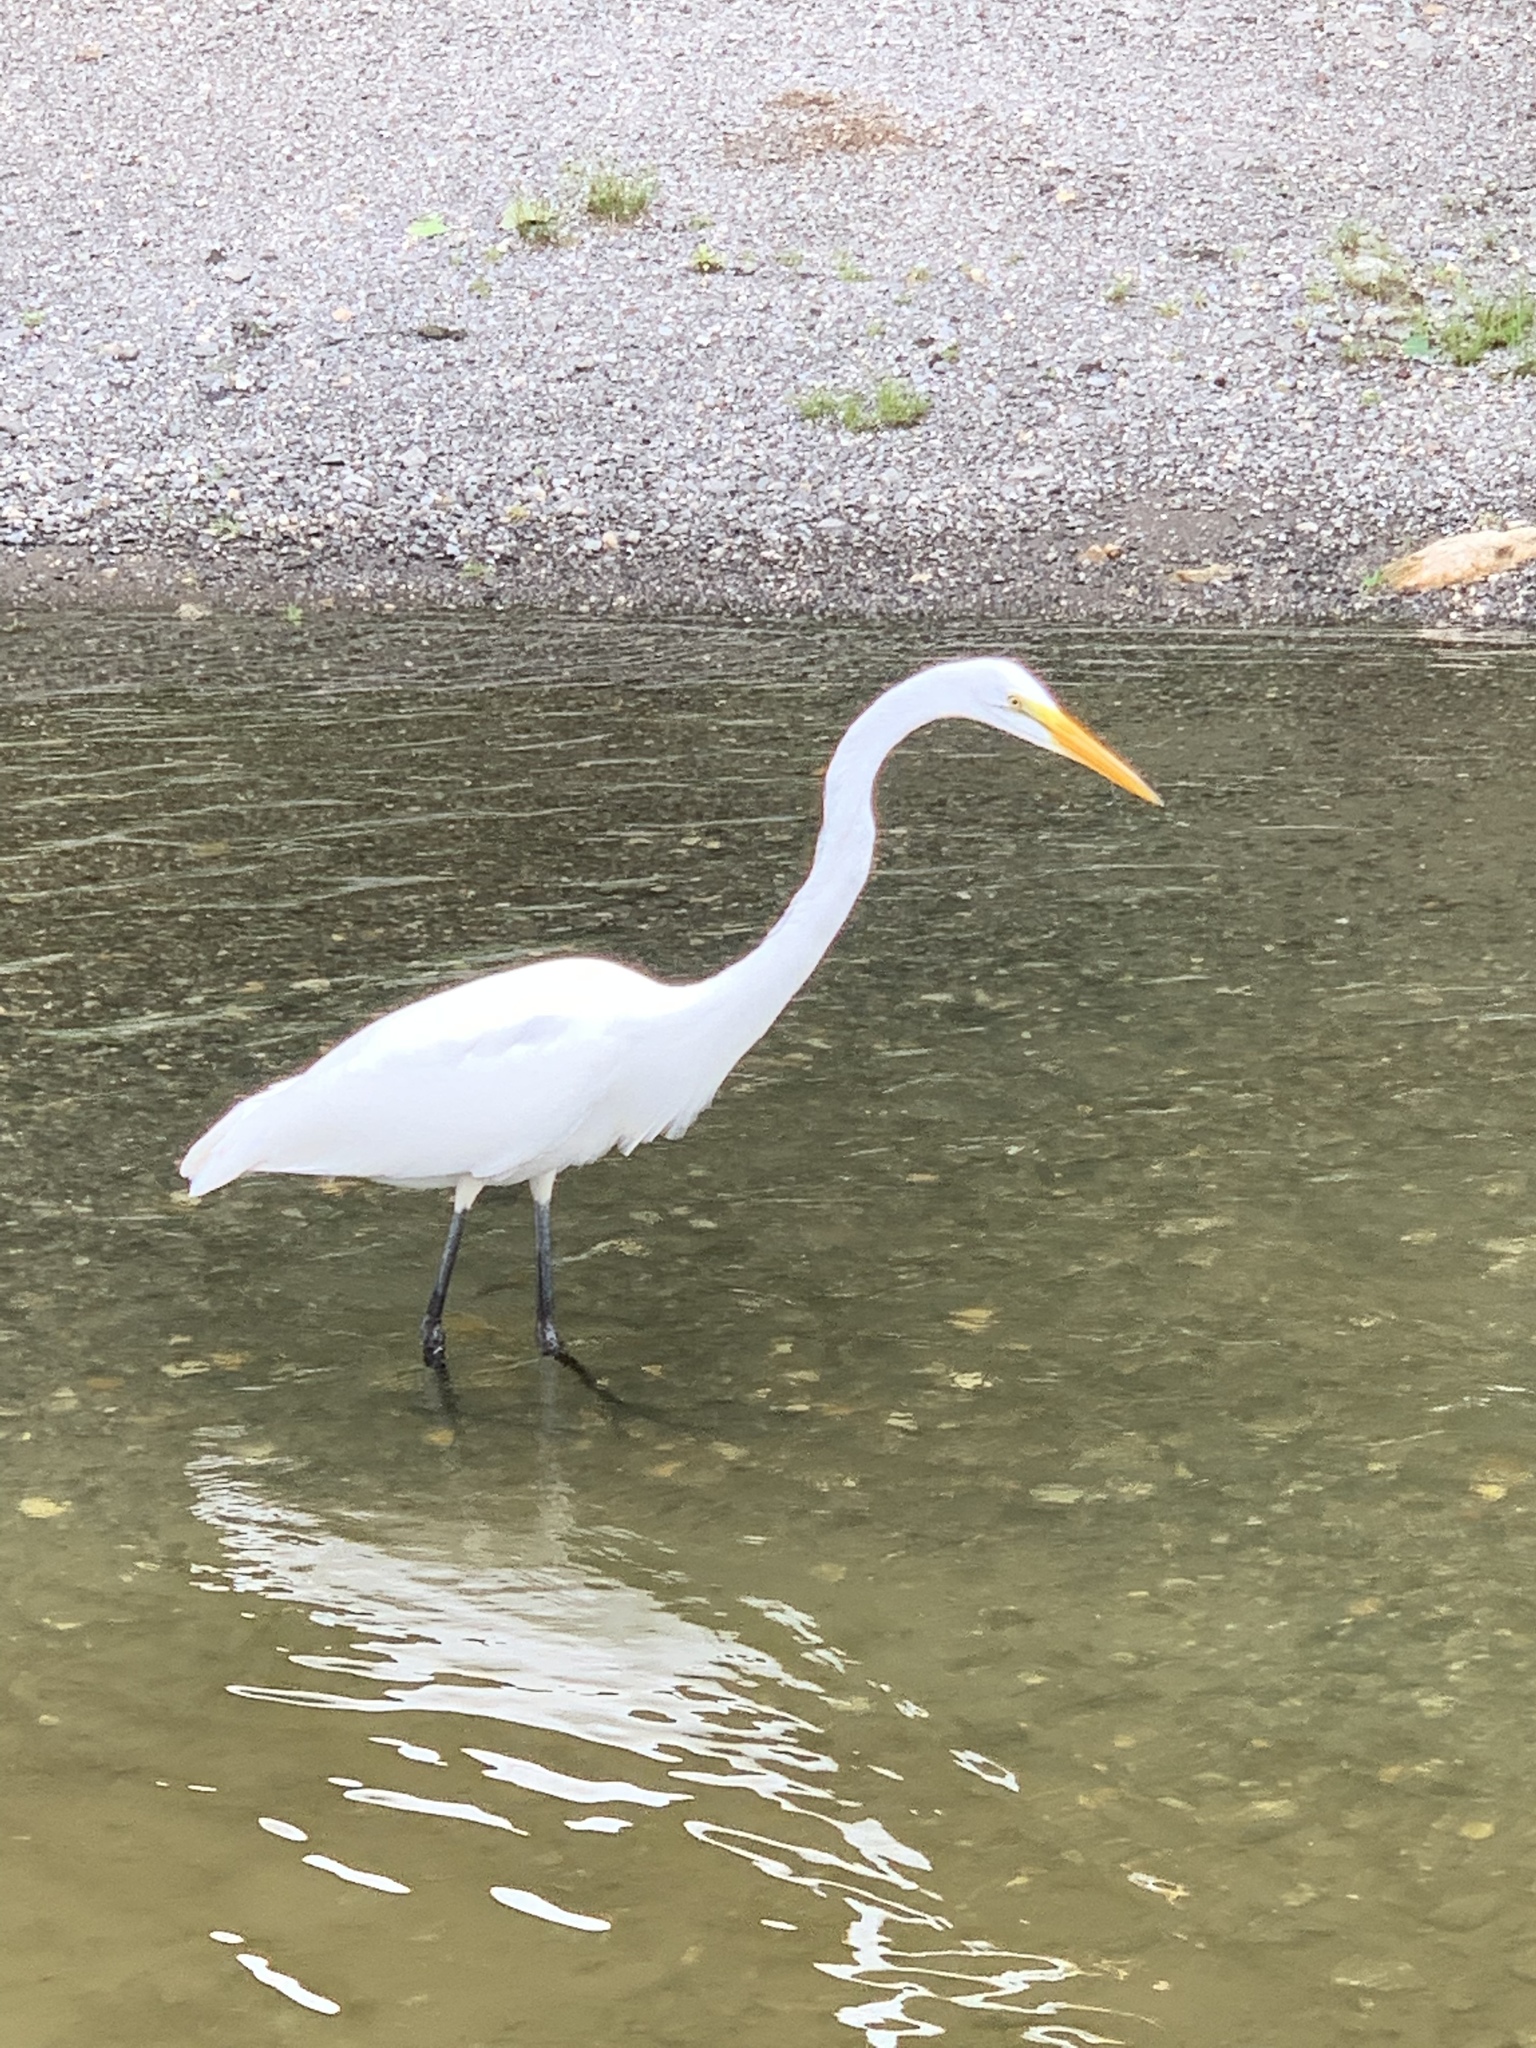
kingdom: Animalia
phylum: Chordata
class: Aves
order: Pelecaniformes
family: Ardeidae
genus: Ardea
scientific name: Ardea alba
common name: Great egret
